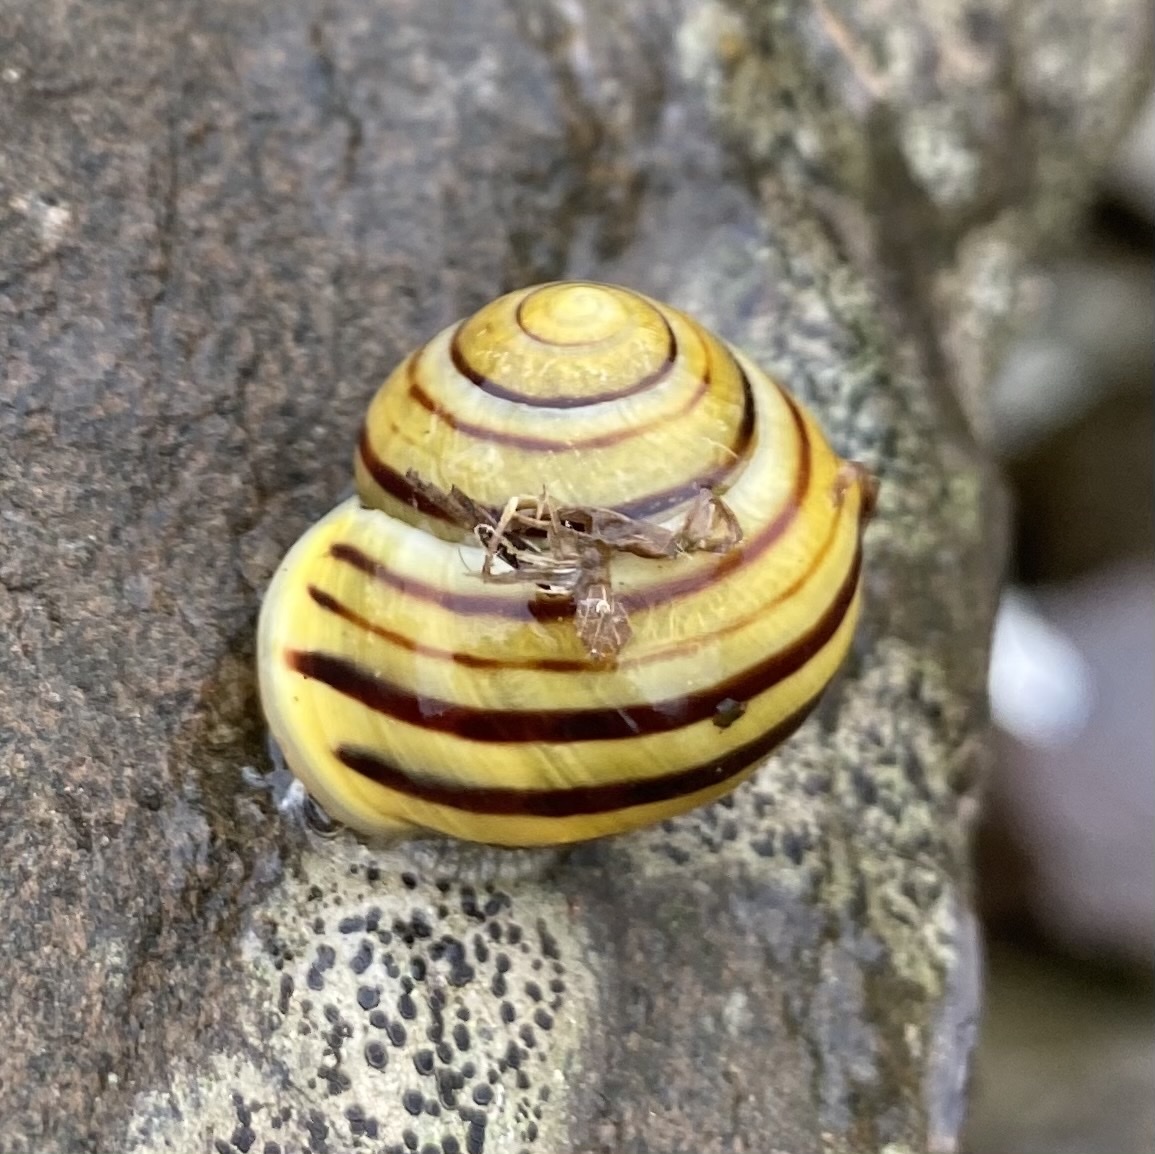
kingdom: Animalia
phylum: Mollusca
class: Gastropoda
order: Stylommatophora
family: Helicidae
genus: Cepaea
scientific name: Cepaea hortensis
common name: White-lip gardensnail
